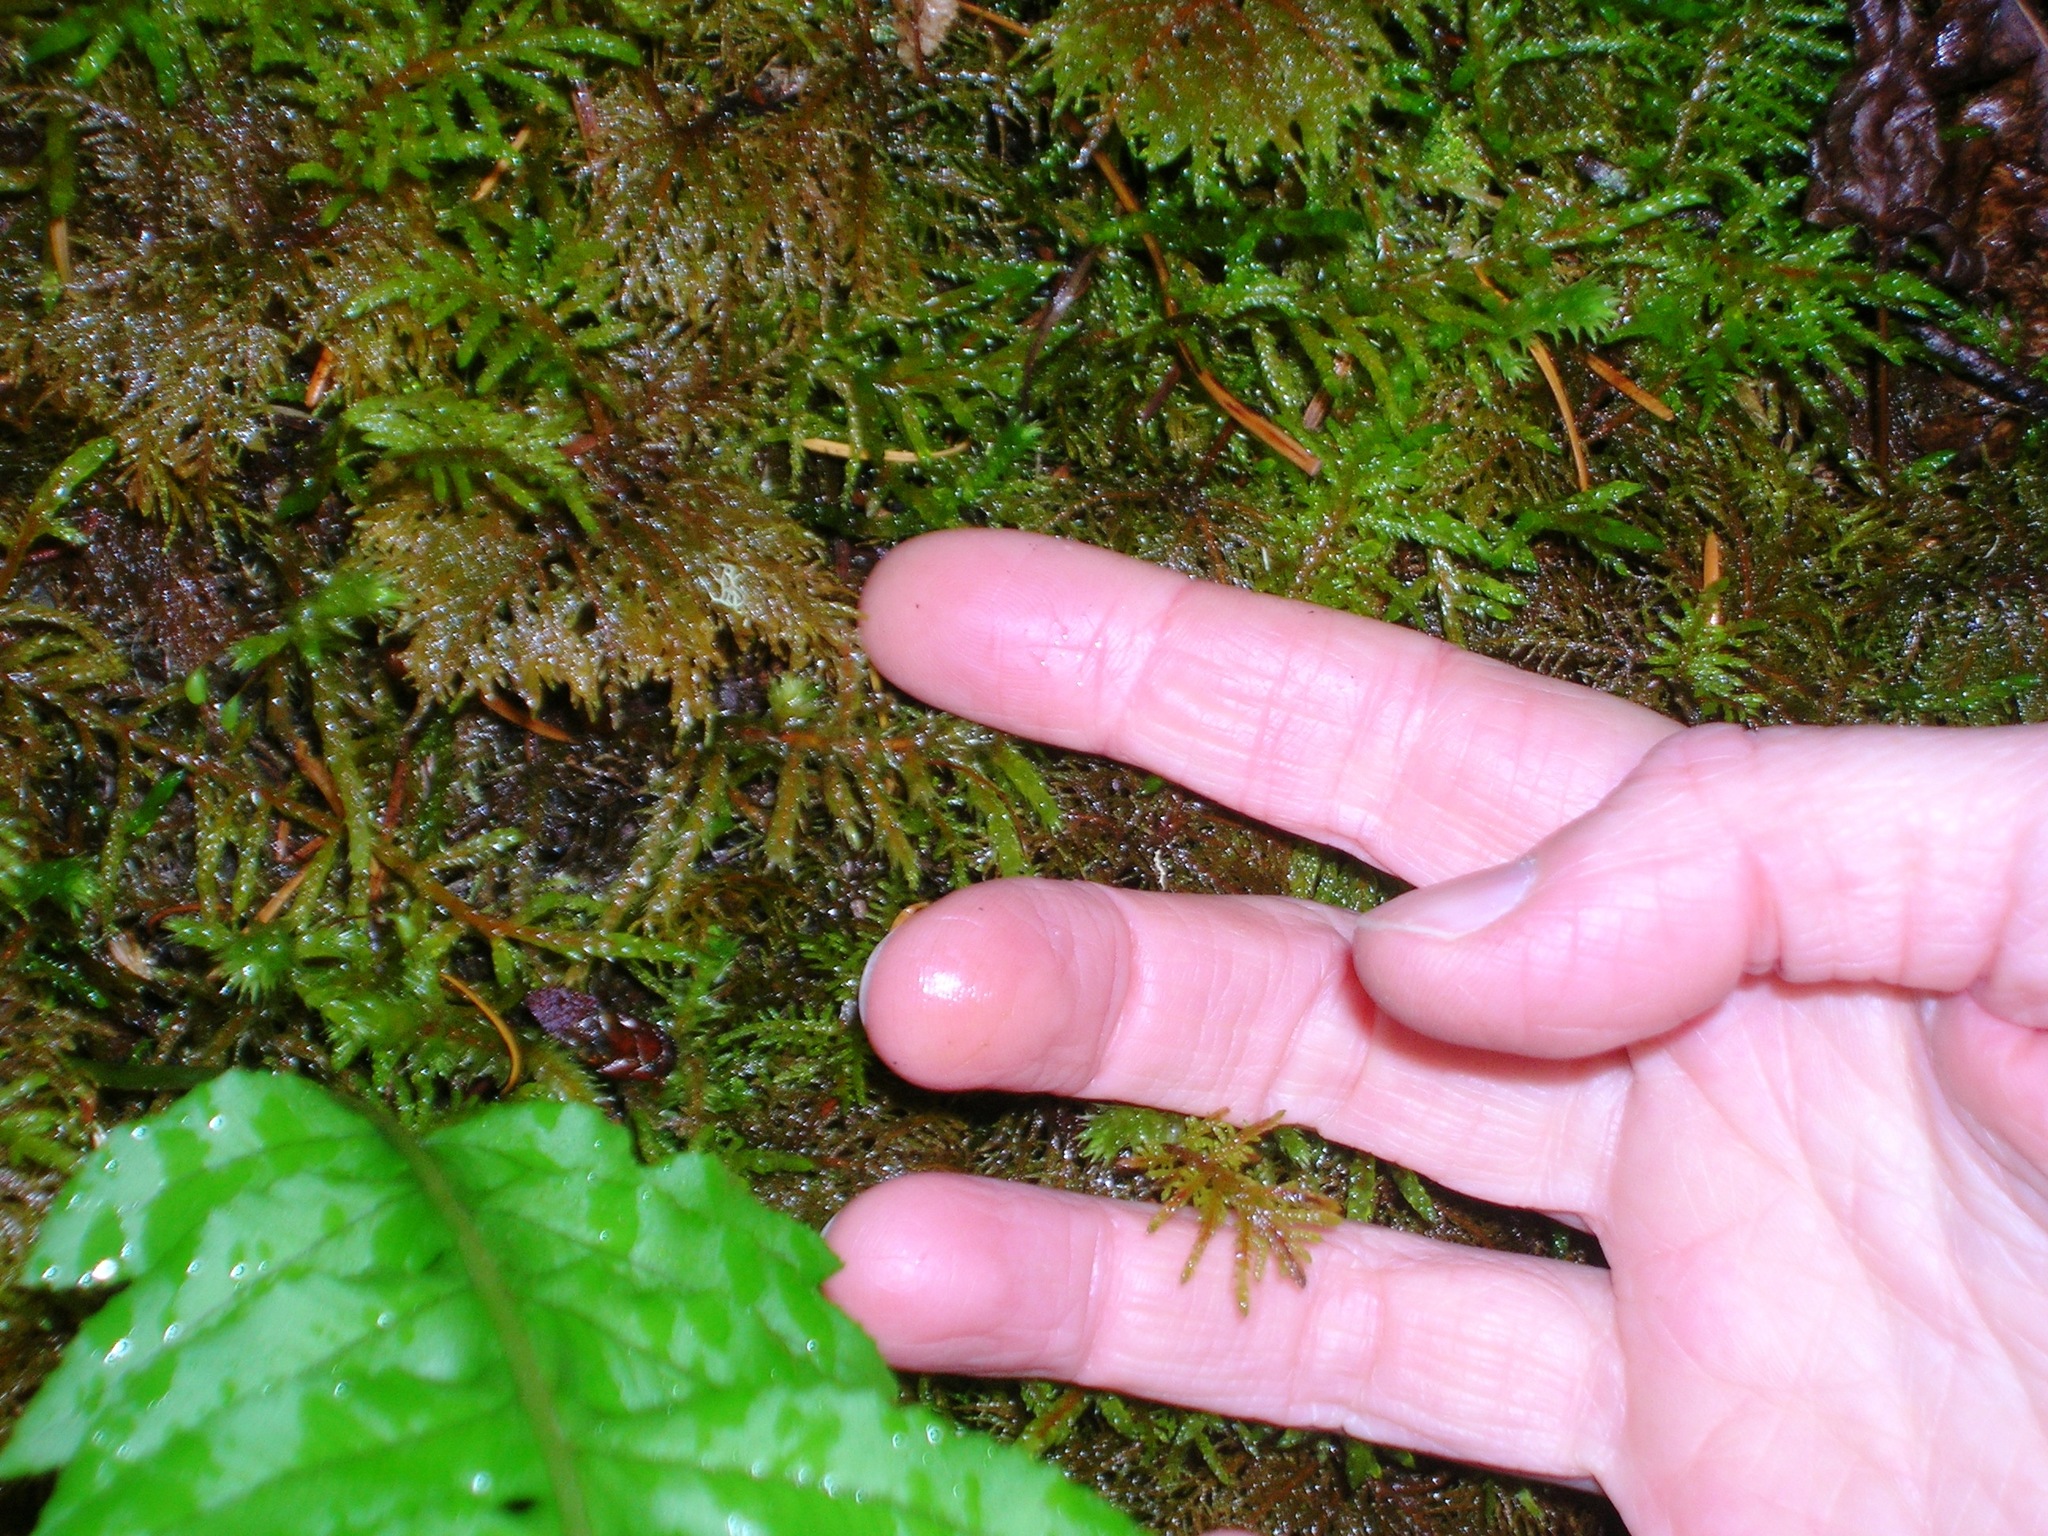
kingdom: Plantae
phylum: Bryophyta
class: Bryopsida
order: Hypnales
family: Hylocomiaceae
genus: Hylocomium
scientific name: Hylocomium splendens
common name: Stairstep moss
